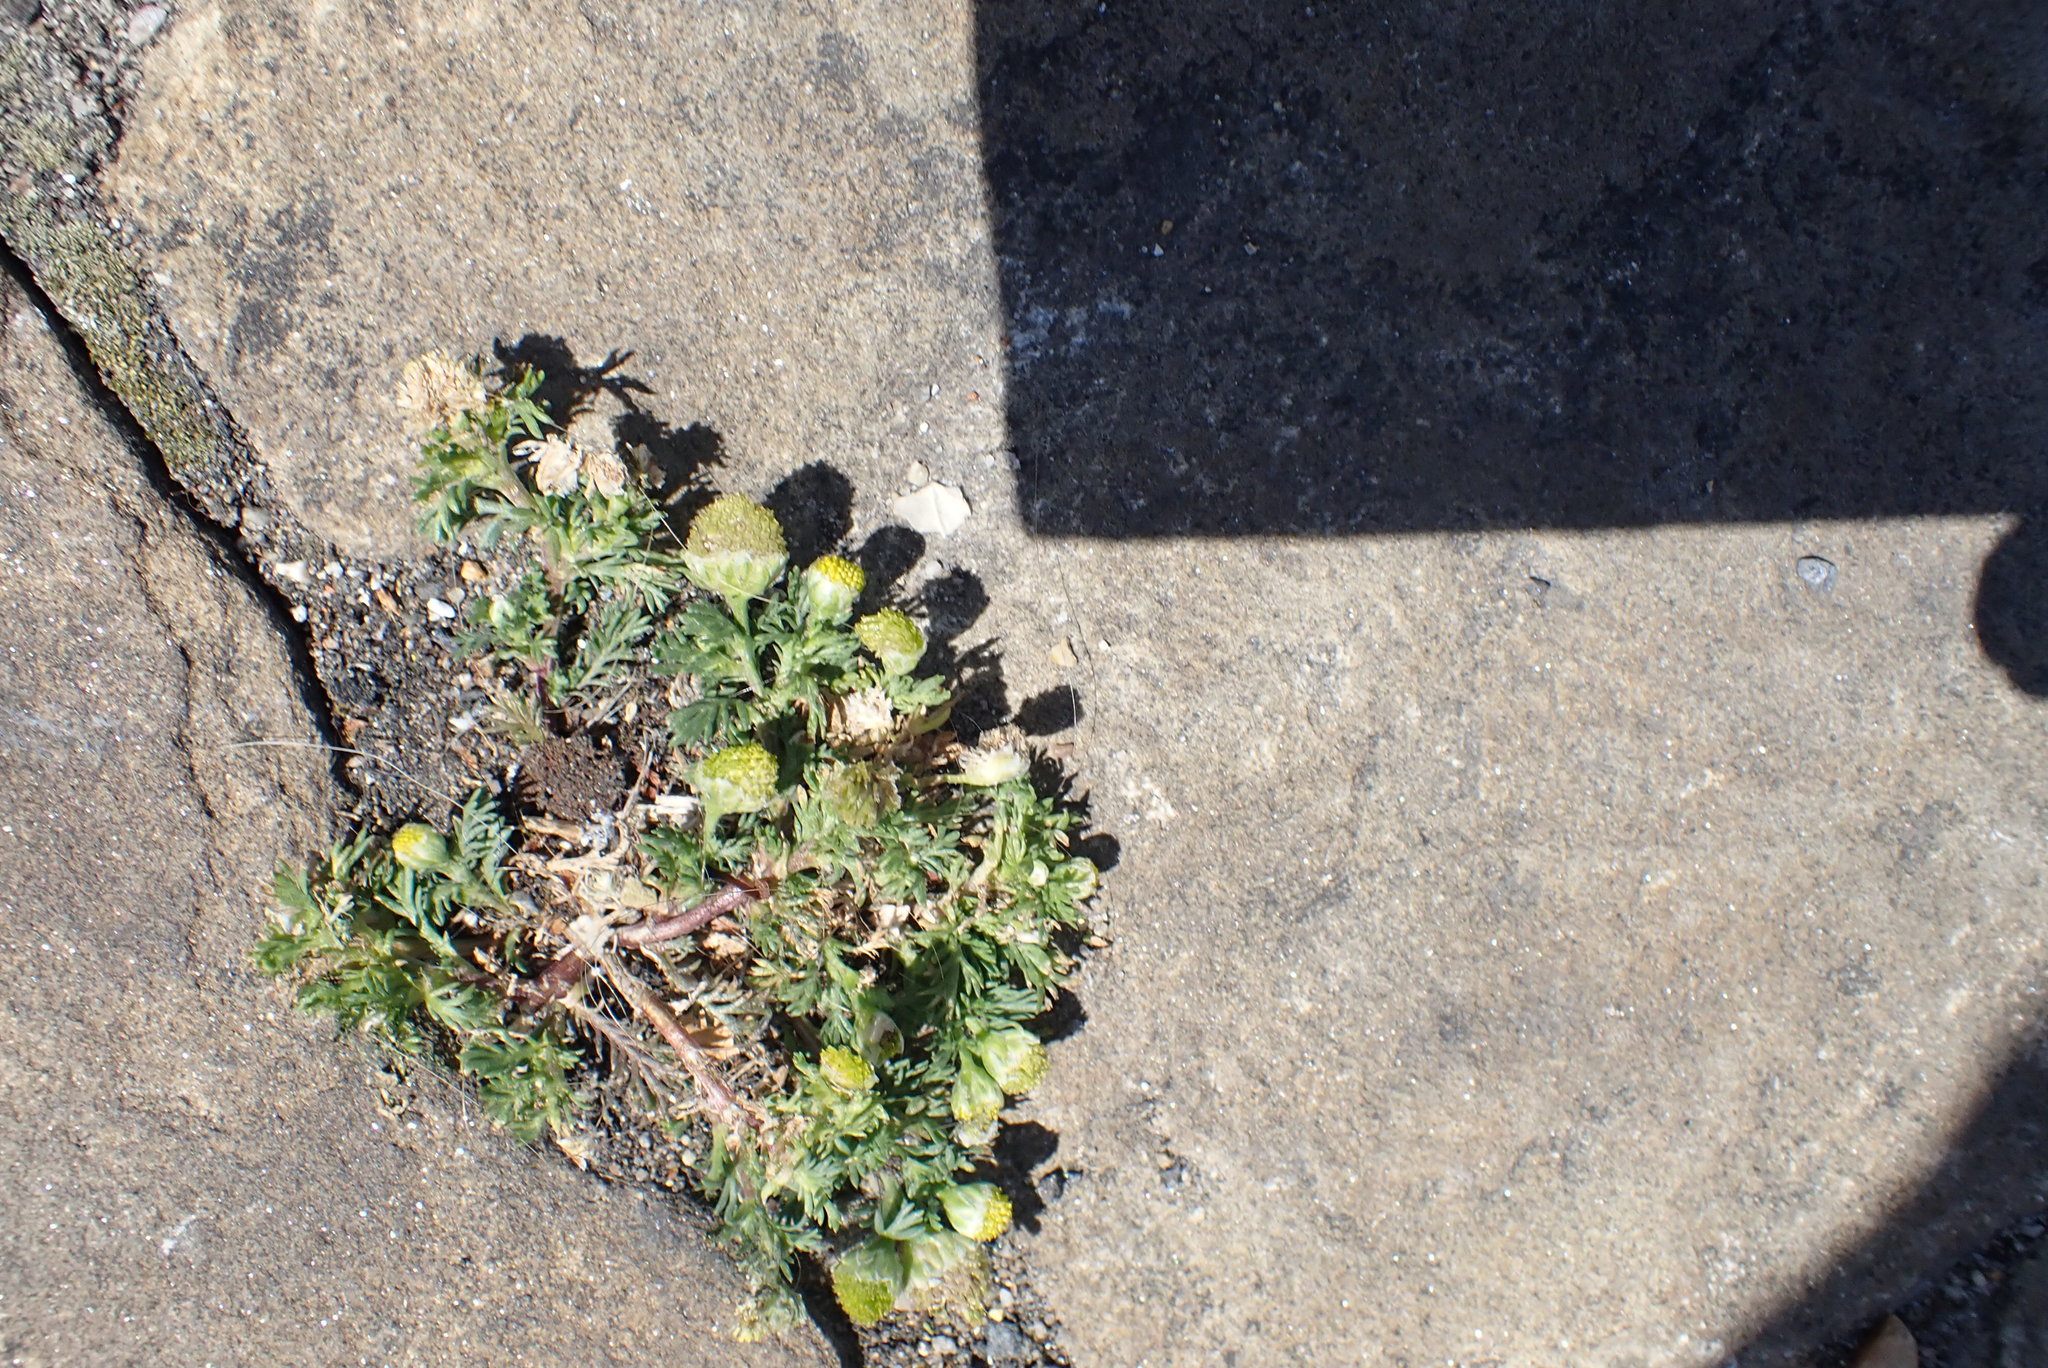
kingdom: Plantae
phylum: Tracheophyta
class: Magnoliopsida
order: Asterales
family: Asteraceae
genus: Matricaria
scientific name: Matricaria discoidea
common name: Disc mayweed
